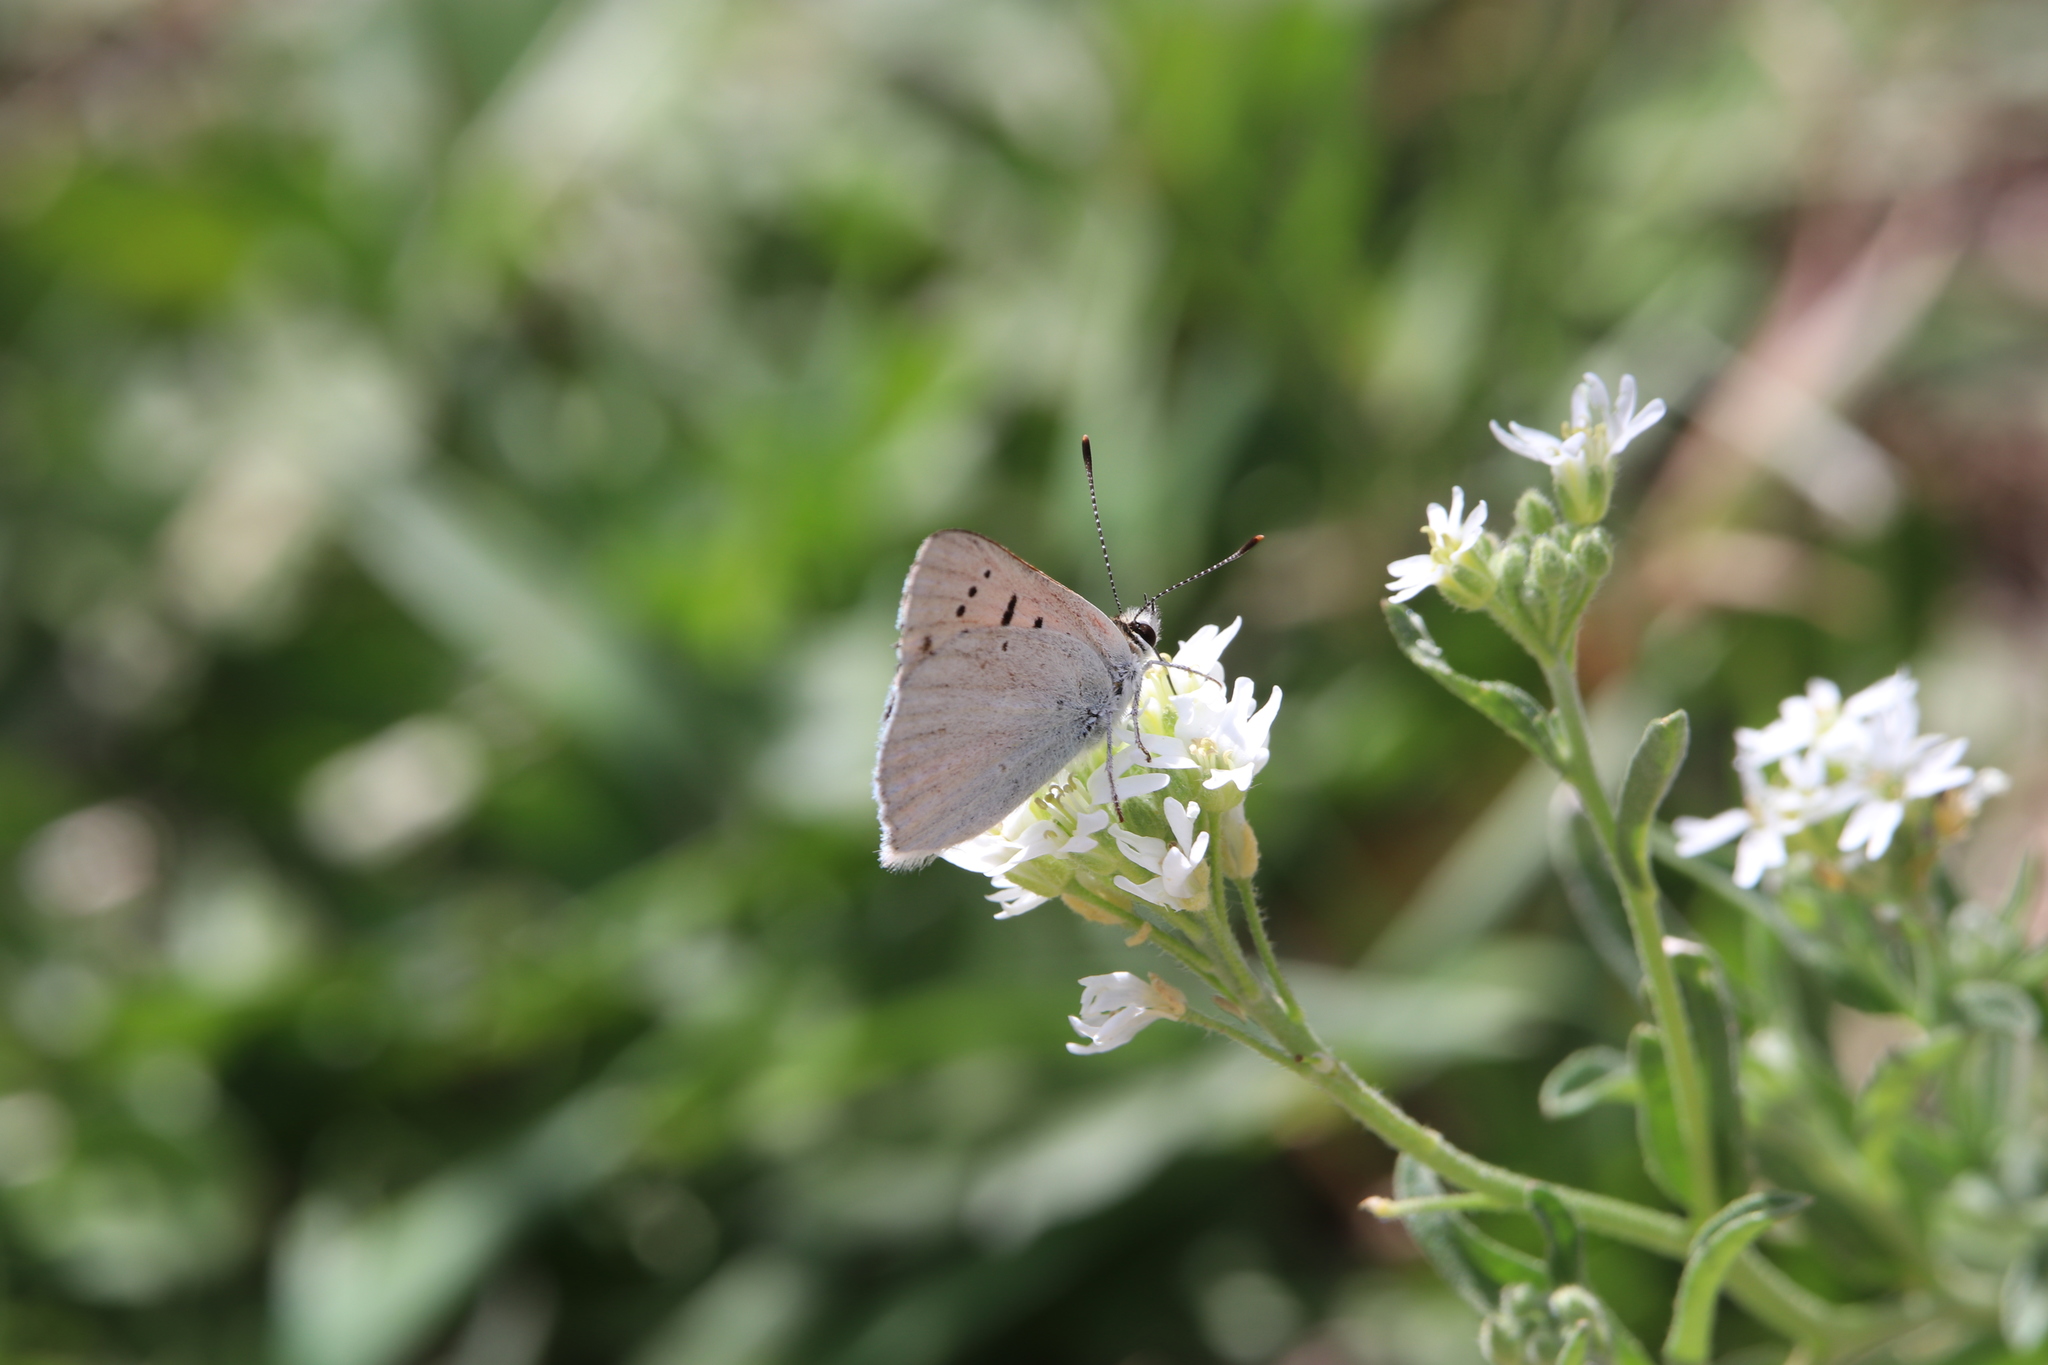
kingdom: Animalia
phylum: Arthropoda
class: Insecta
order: Lepidoptera
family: Lycaenidae
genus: Tharsalea
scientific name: Tharsalea rubidus
